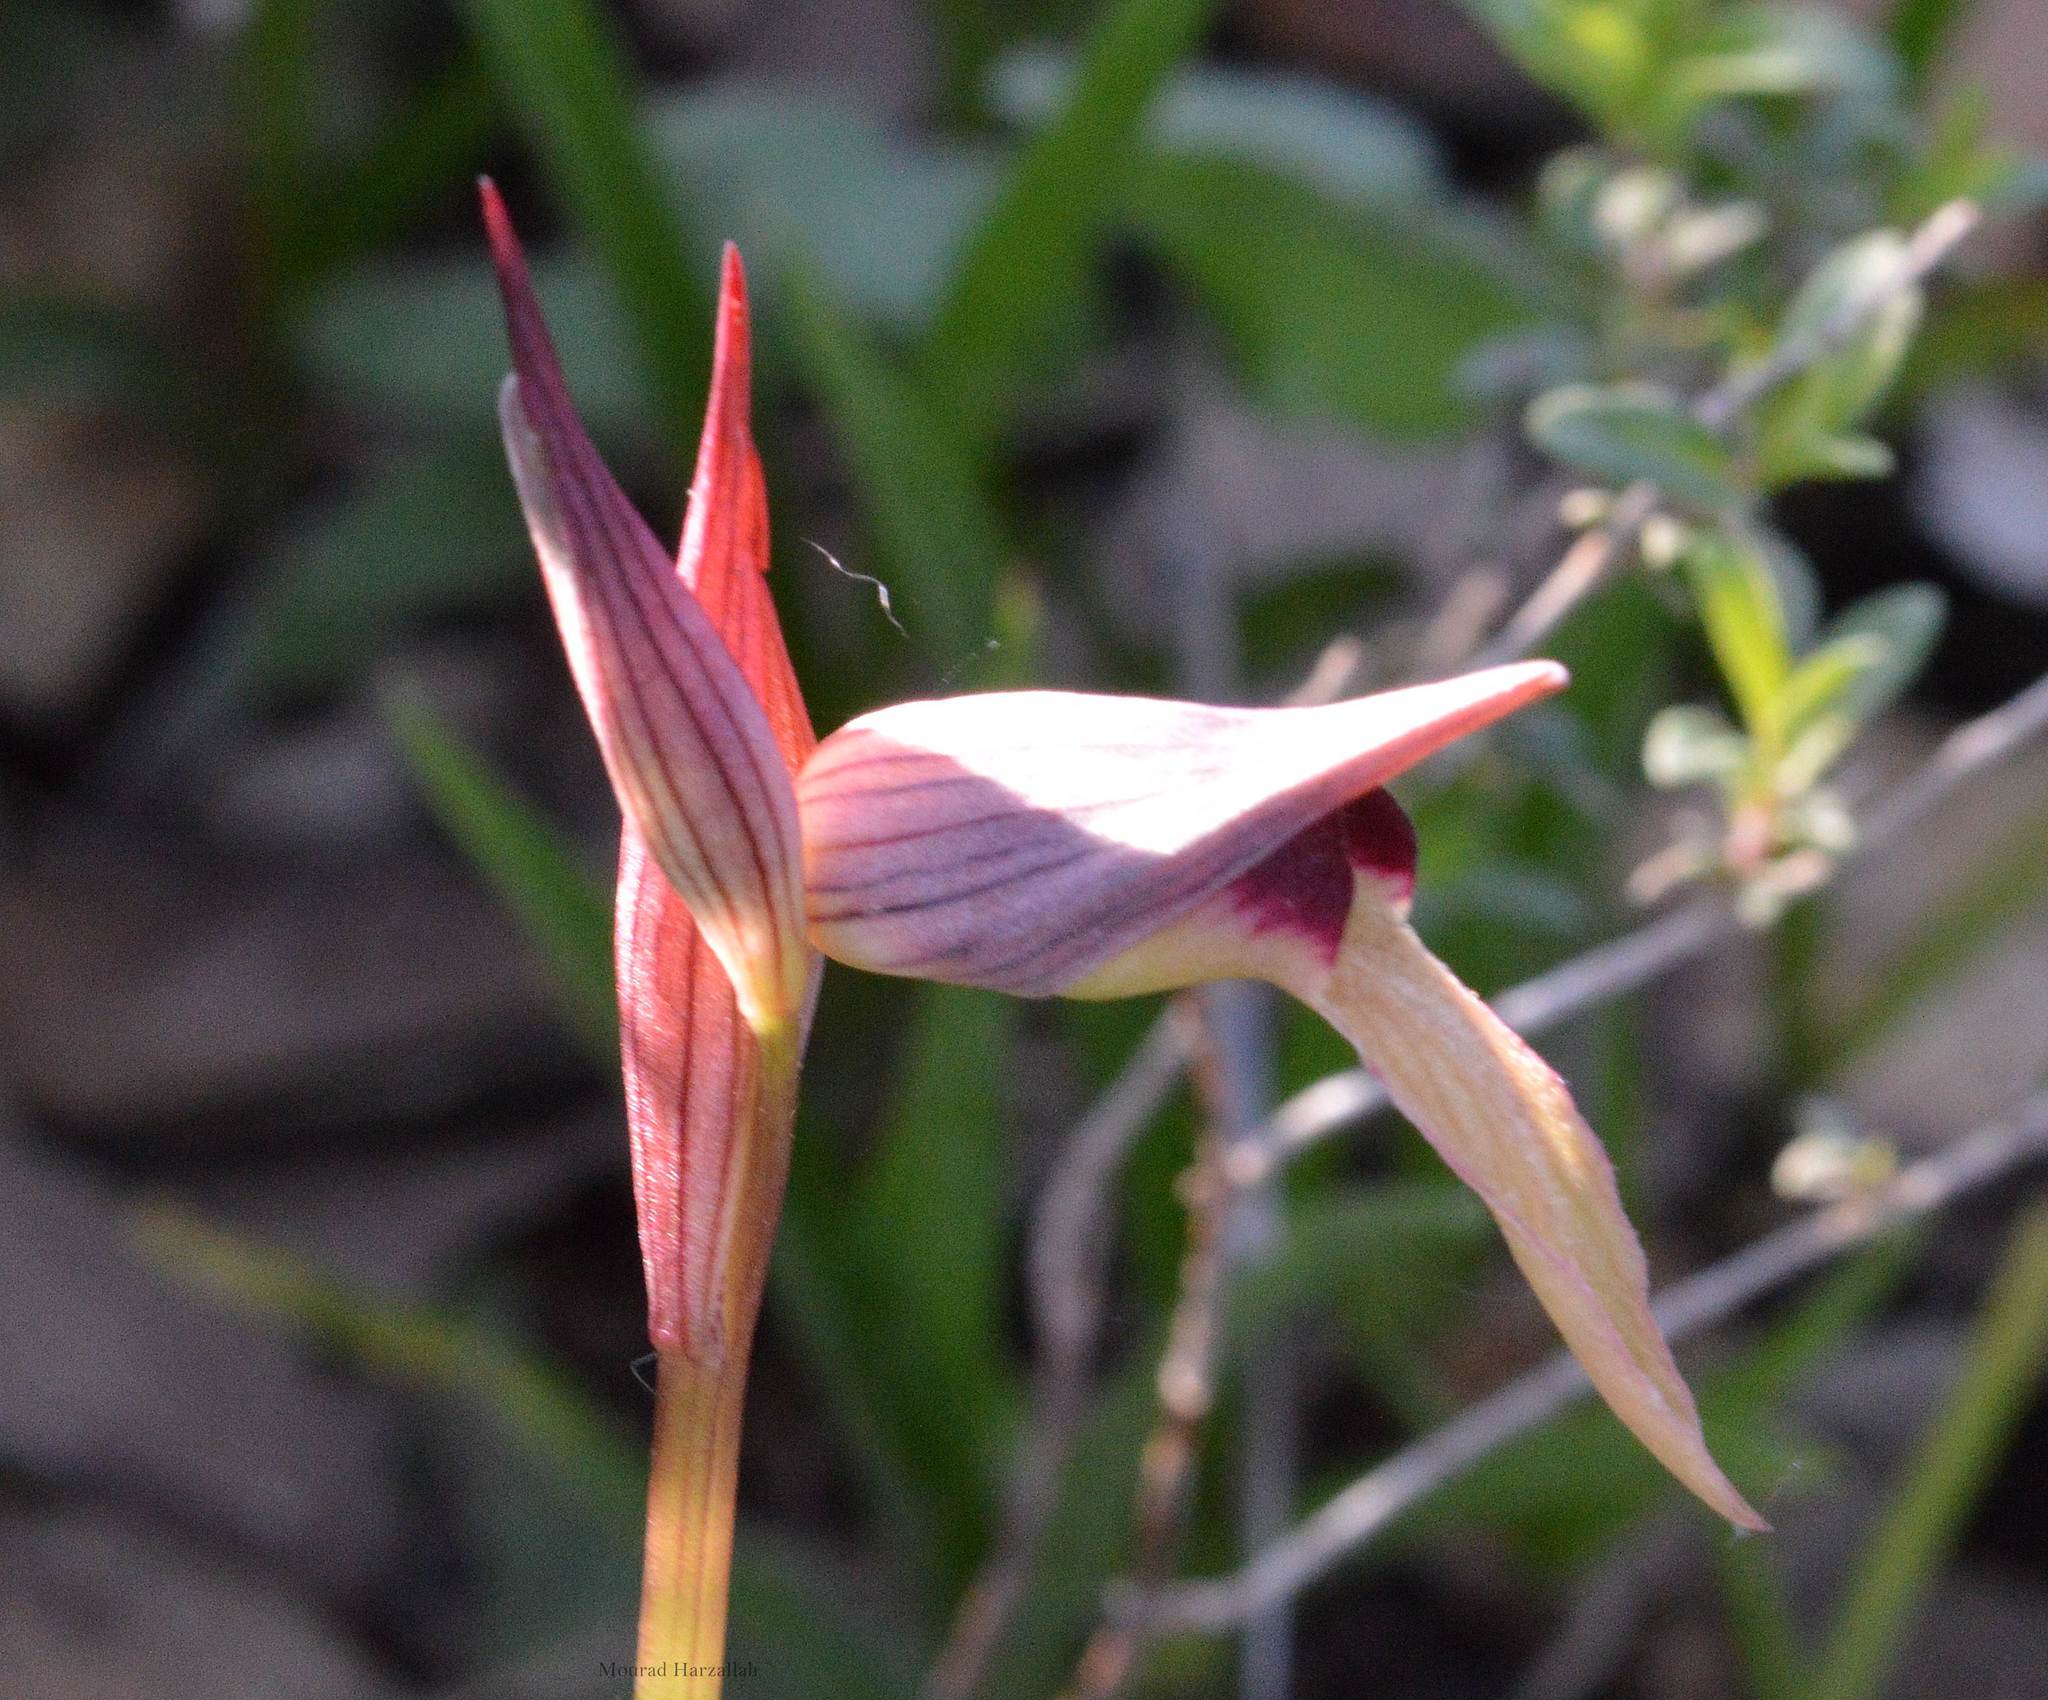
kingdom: Plantae
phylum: Tracheophyta
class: Liliopsida
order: Asparagales
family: Orchidaceae
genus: Serapias
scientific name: Serapias lingua
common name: Tongue-orchid
